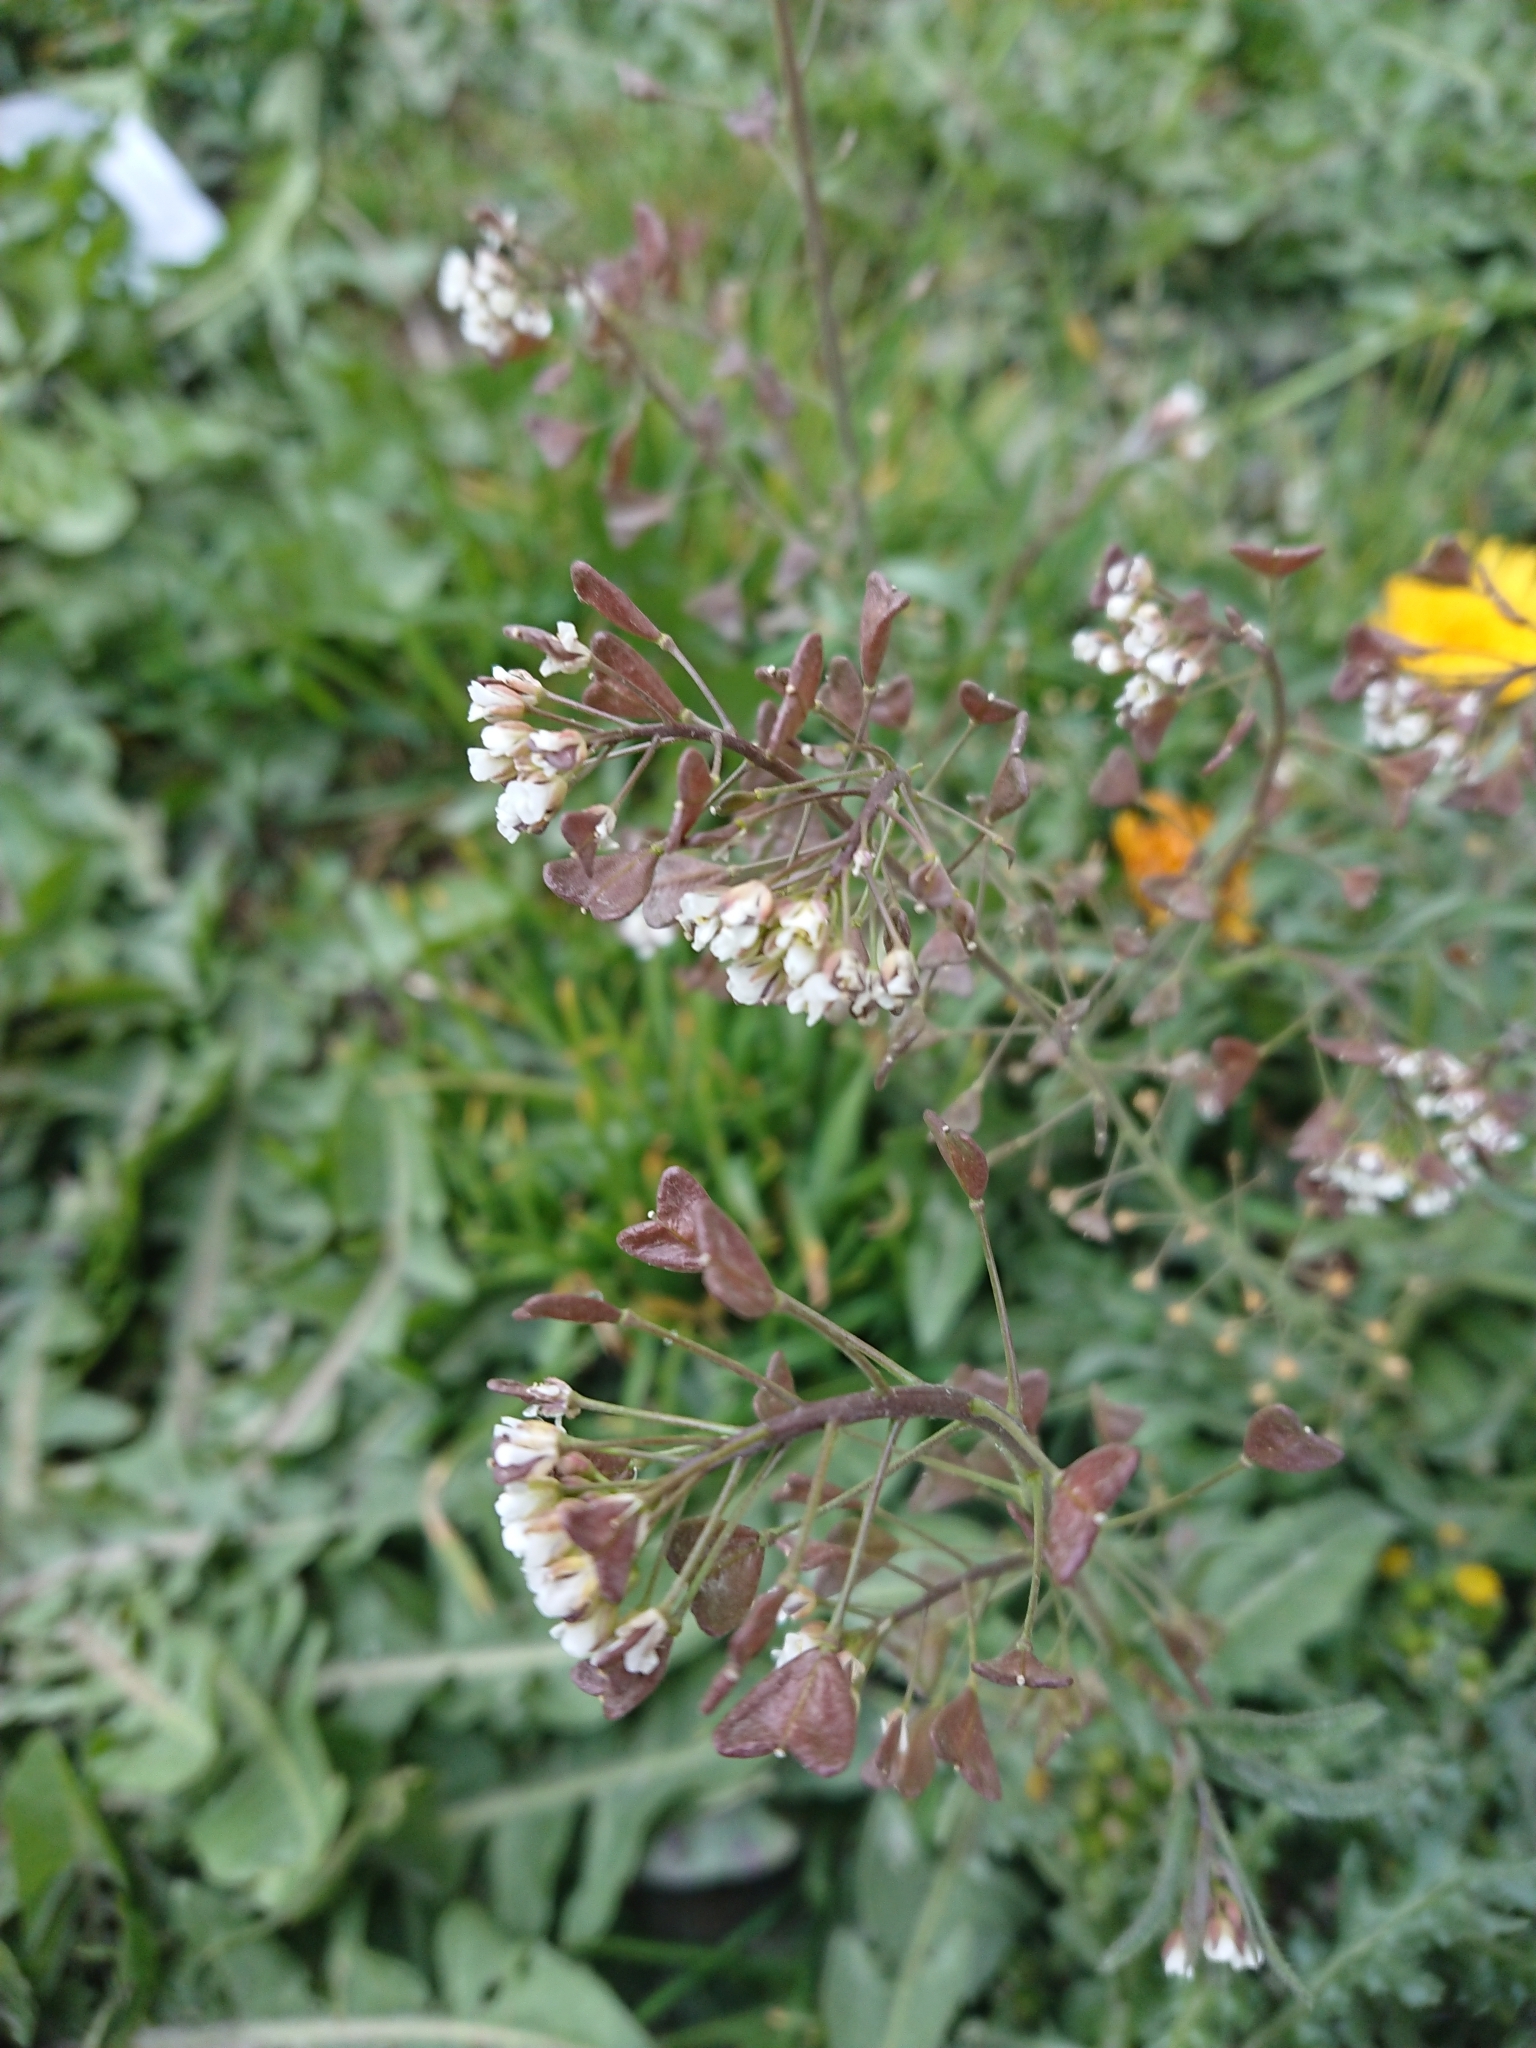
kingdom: Plantae
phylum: Tracheophyta
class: Magnoliopsida
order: Brassicales
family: Brassicaceae
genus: Capsella
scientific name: Capsella bursa-pastoris
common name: Shepherd's purse
